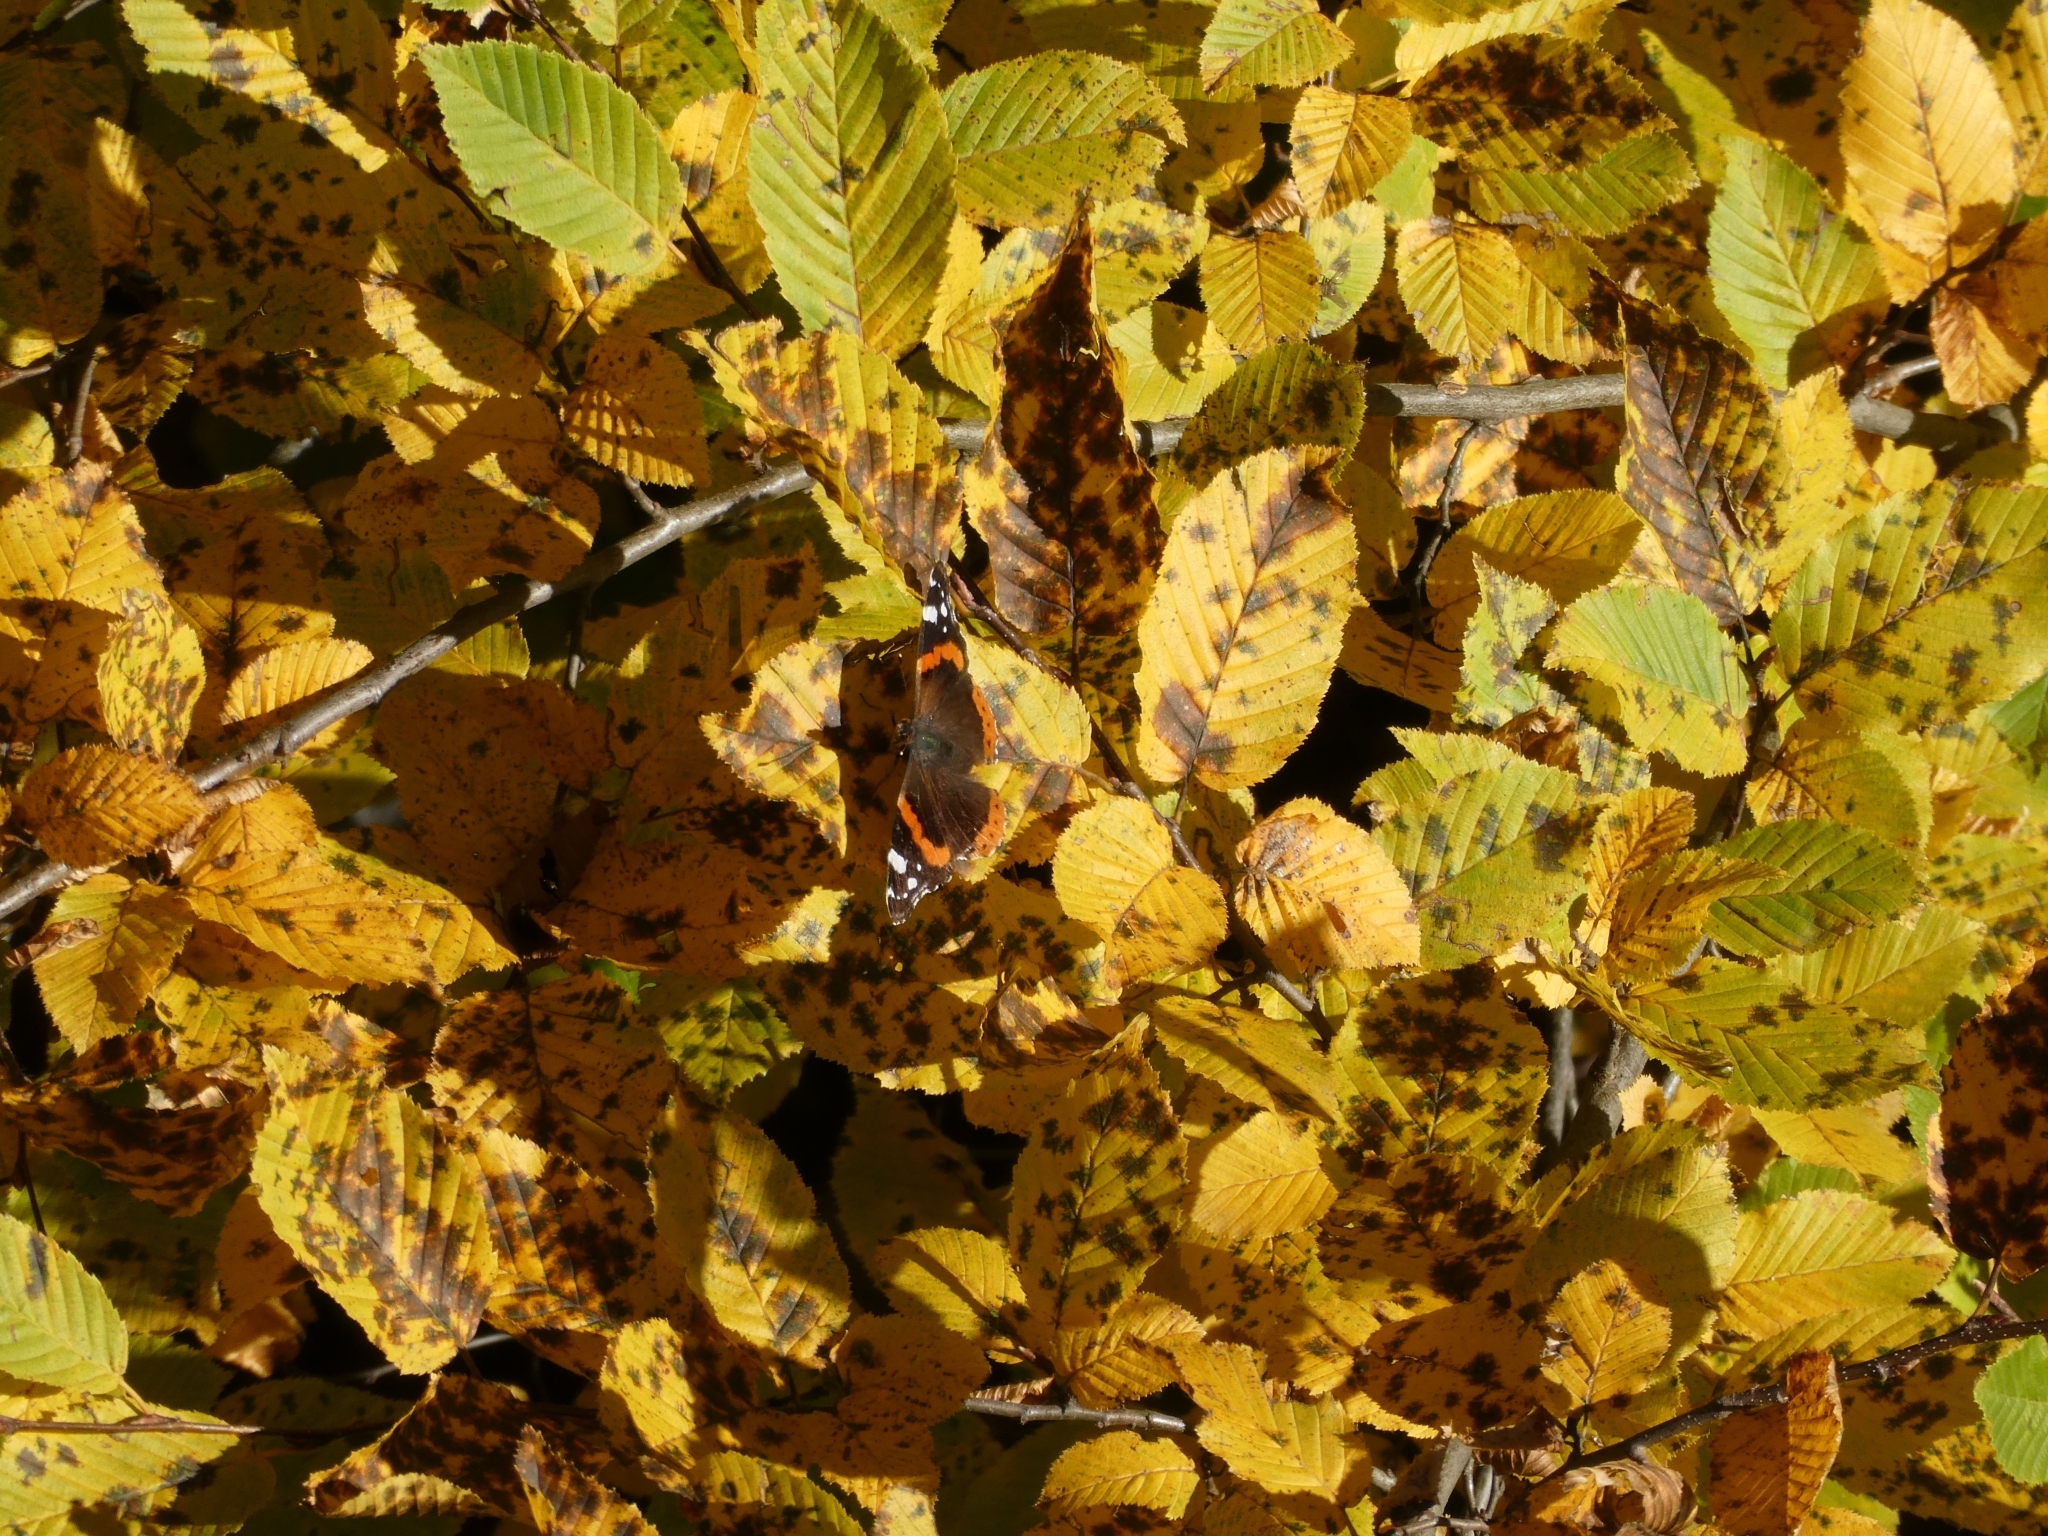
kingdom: Animalia
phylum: Arthropoda
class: Insecta
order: Lepidoptera
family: Nymphalidae
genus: Vanessa
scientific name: Vanessa atalanta
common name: Red admiral
